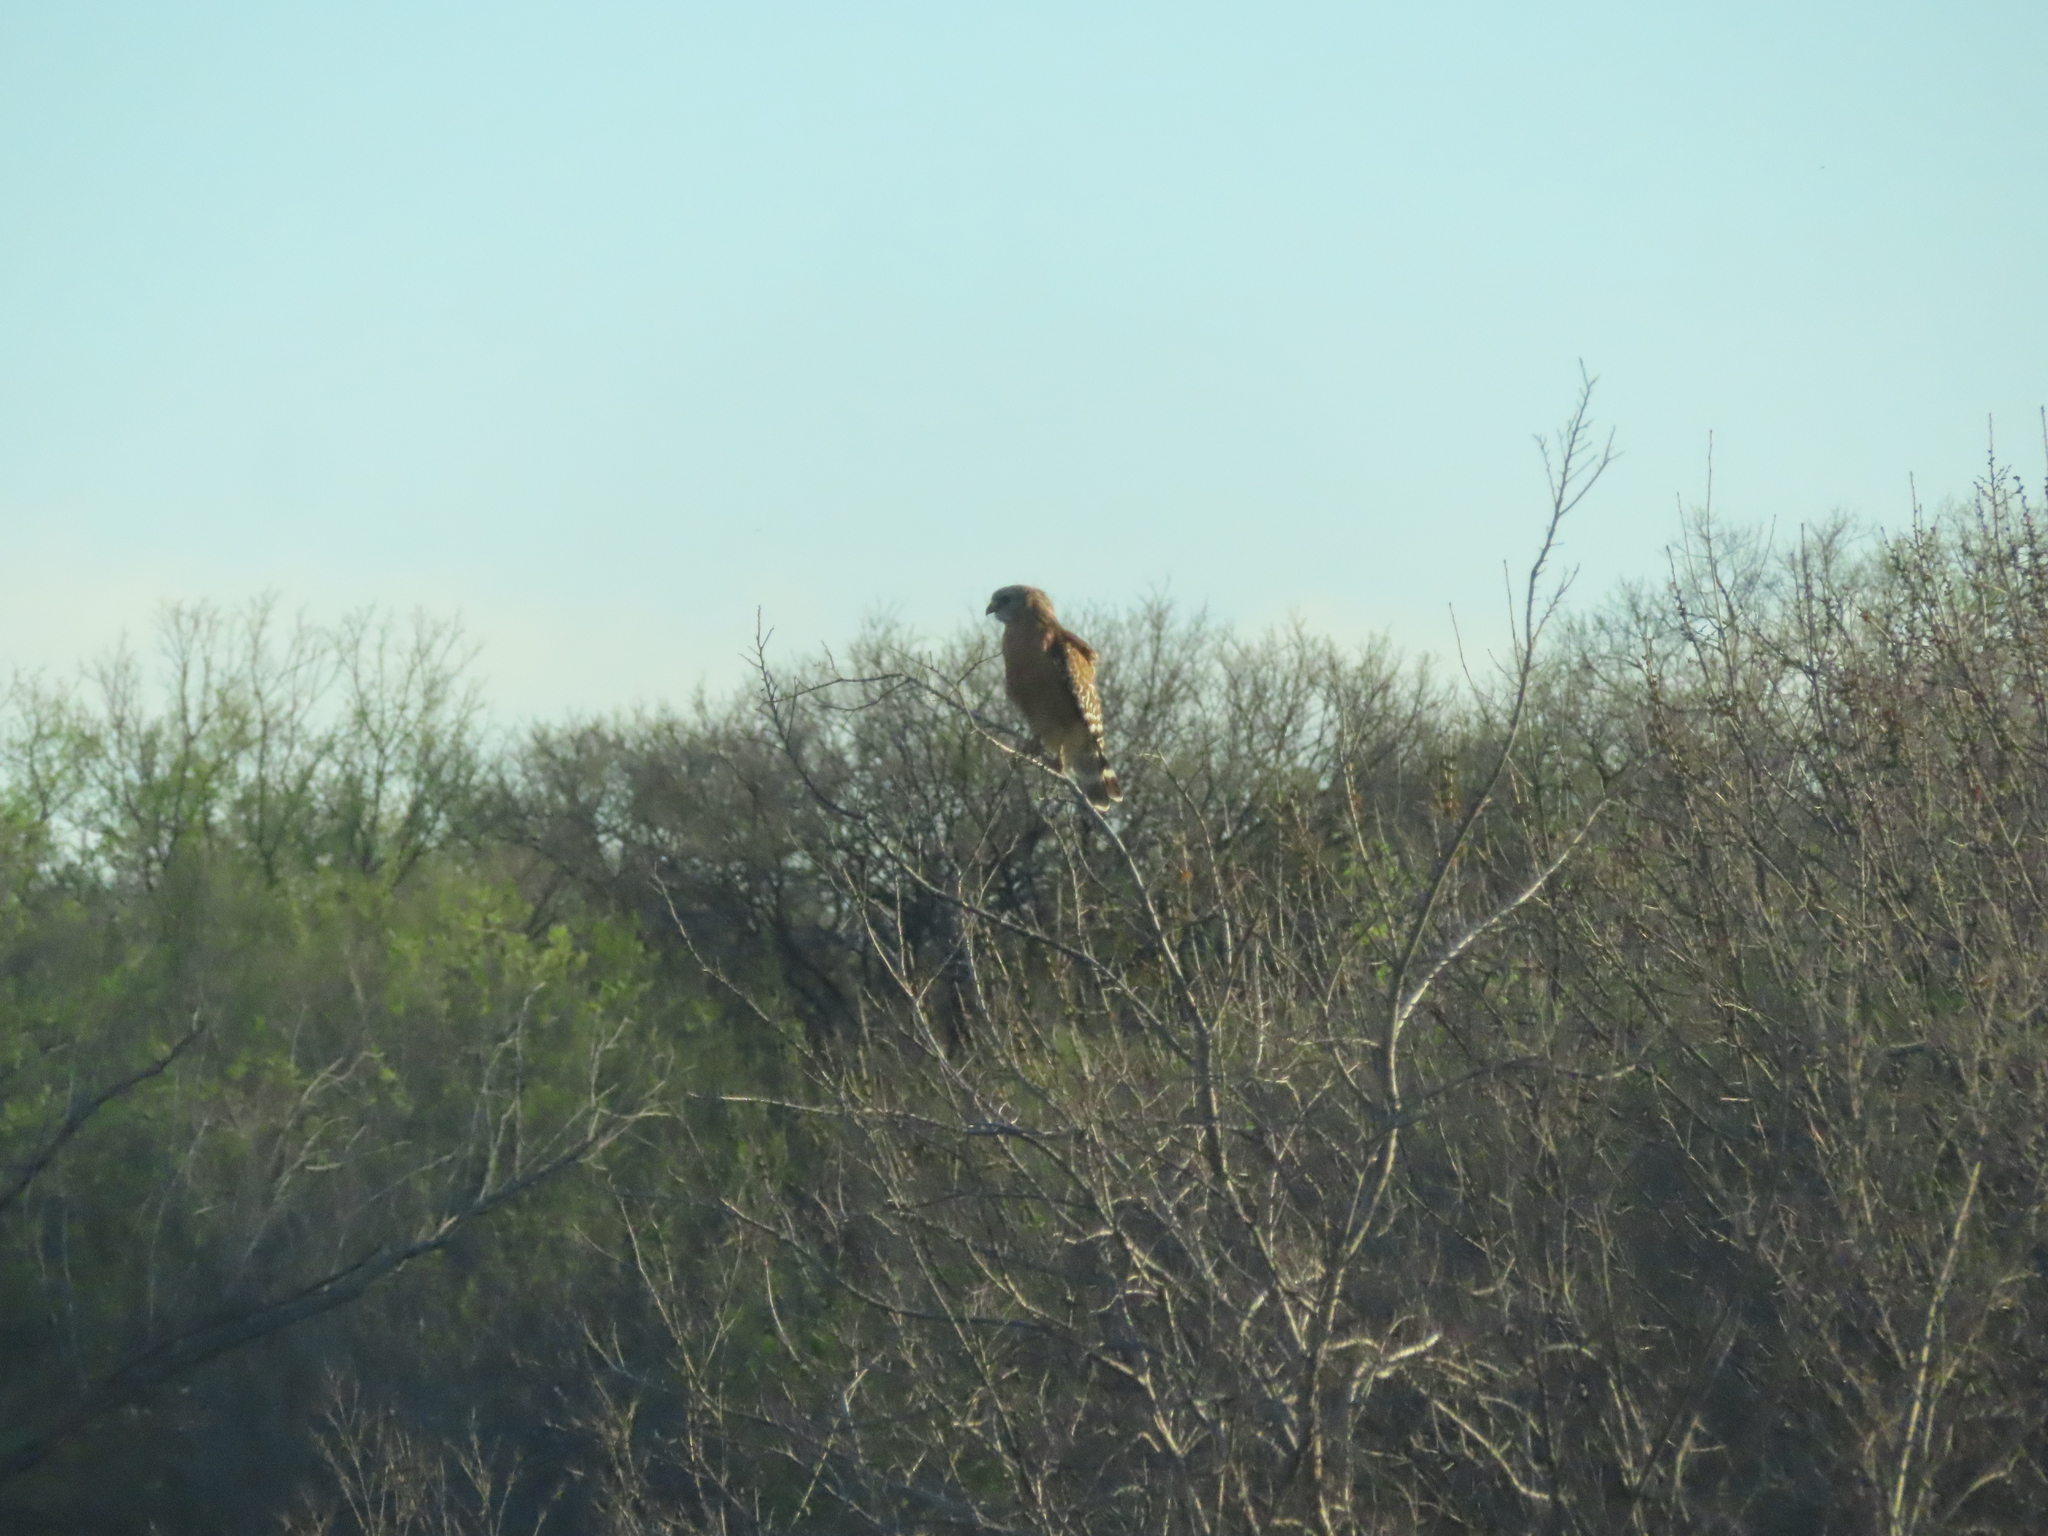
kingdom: Animalia
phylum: Chordata
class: Aves
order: Accipitriformes
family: Accipitridae
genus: Buteo
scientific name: Buteo lineatus
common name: Red-shouldered hawk
